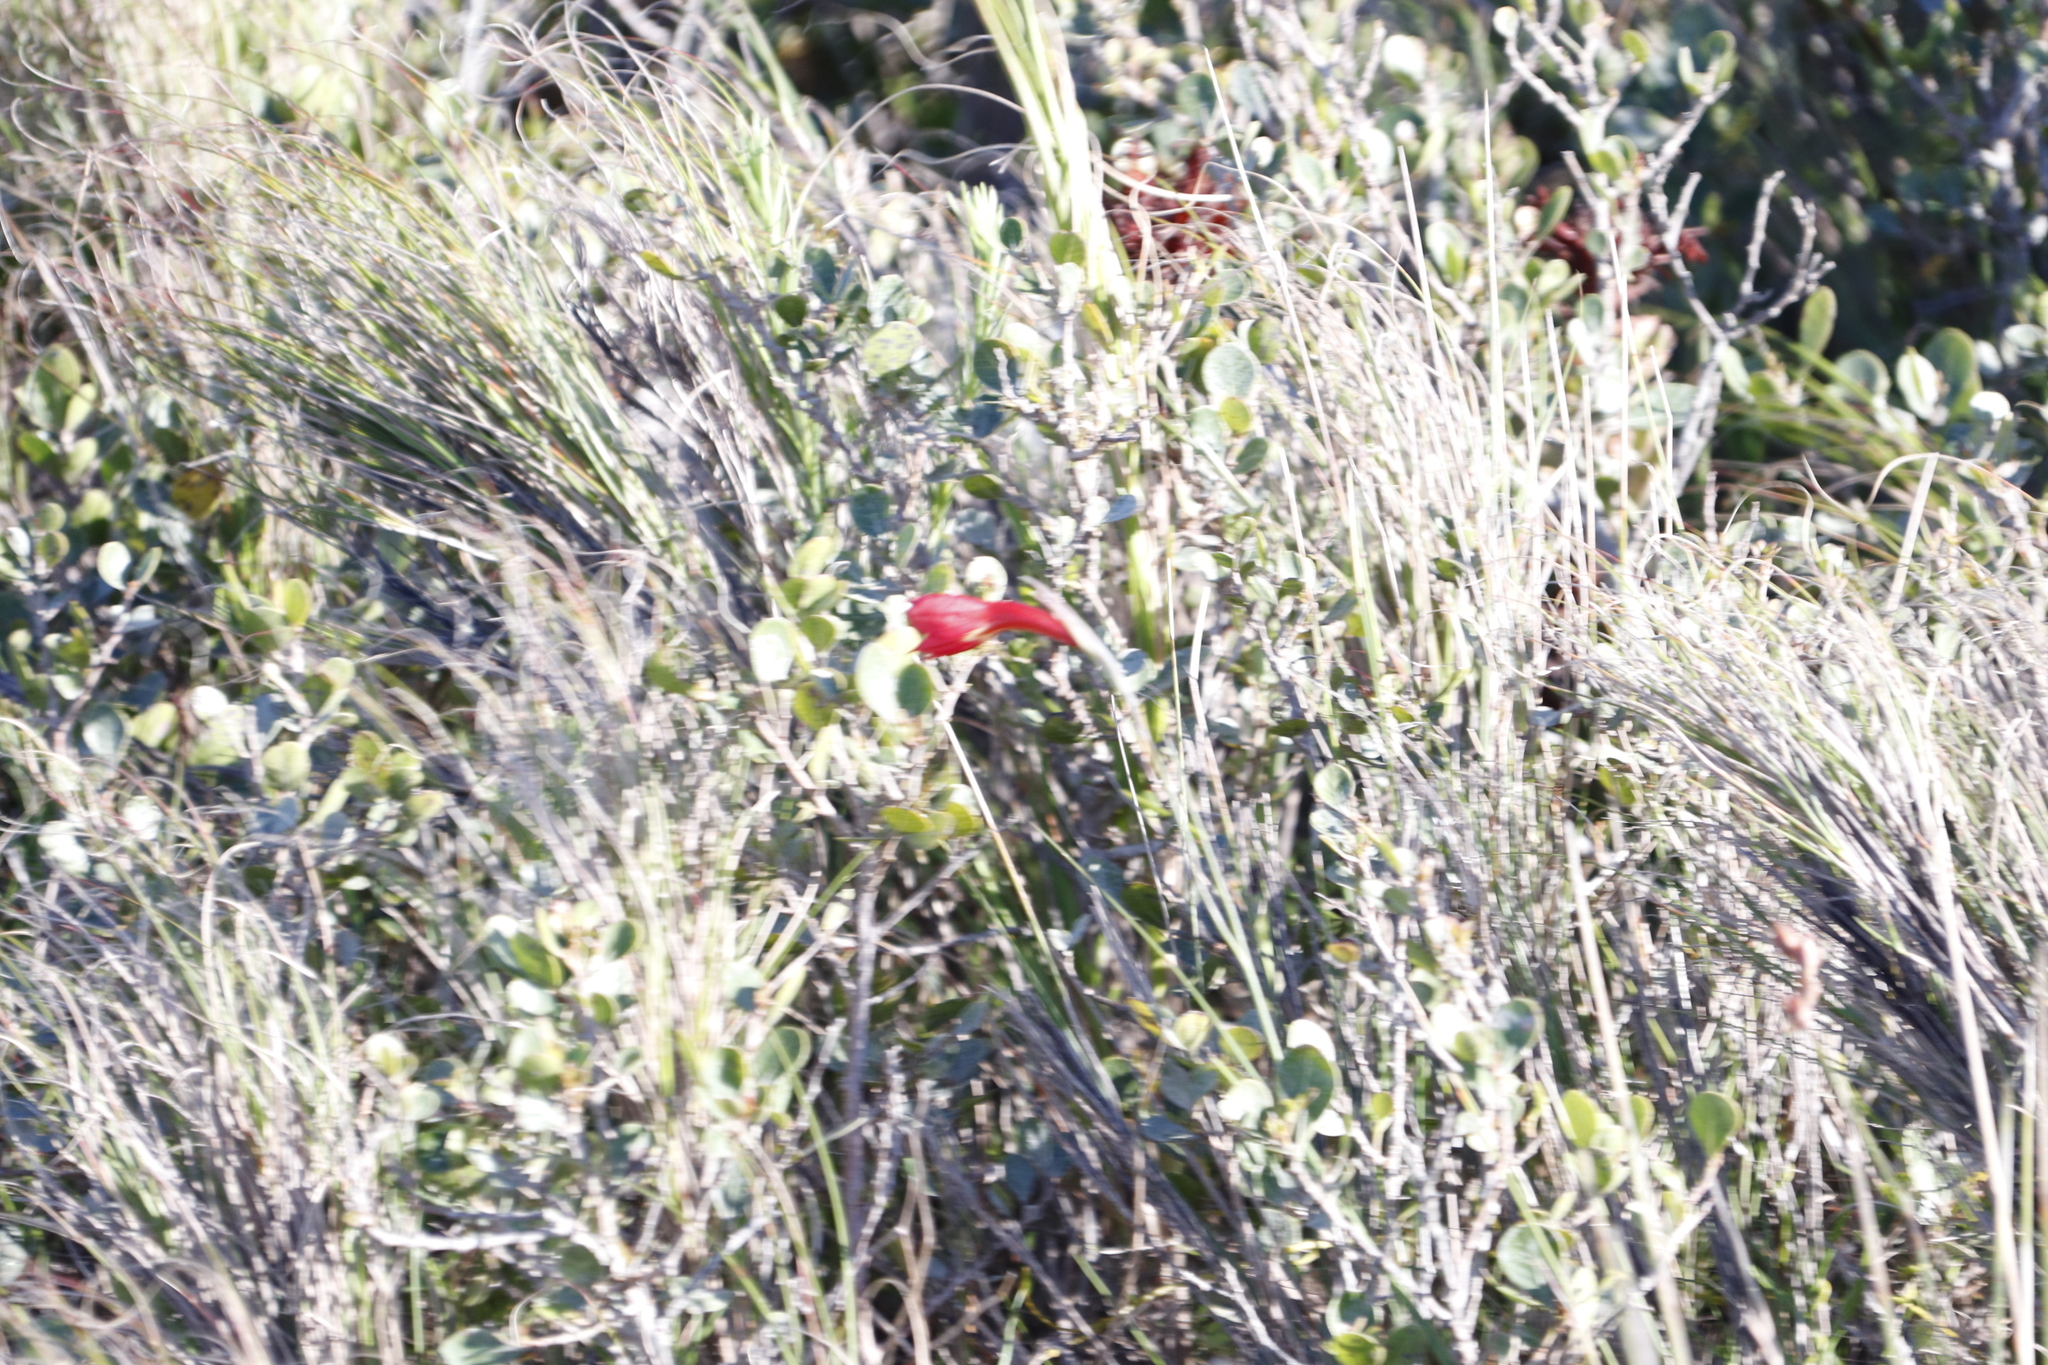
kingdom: Plantae
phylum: Tracheophyta
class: Liliopsida
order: Asparagales
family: Iridaceae
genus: Gladiolus
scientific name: Gladiolus priorii
